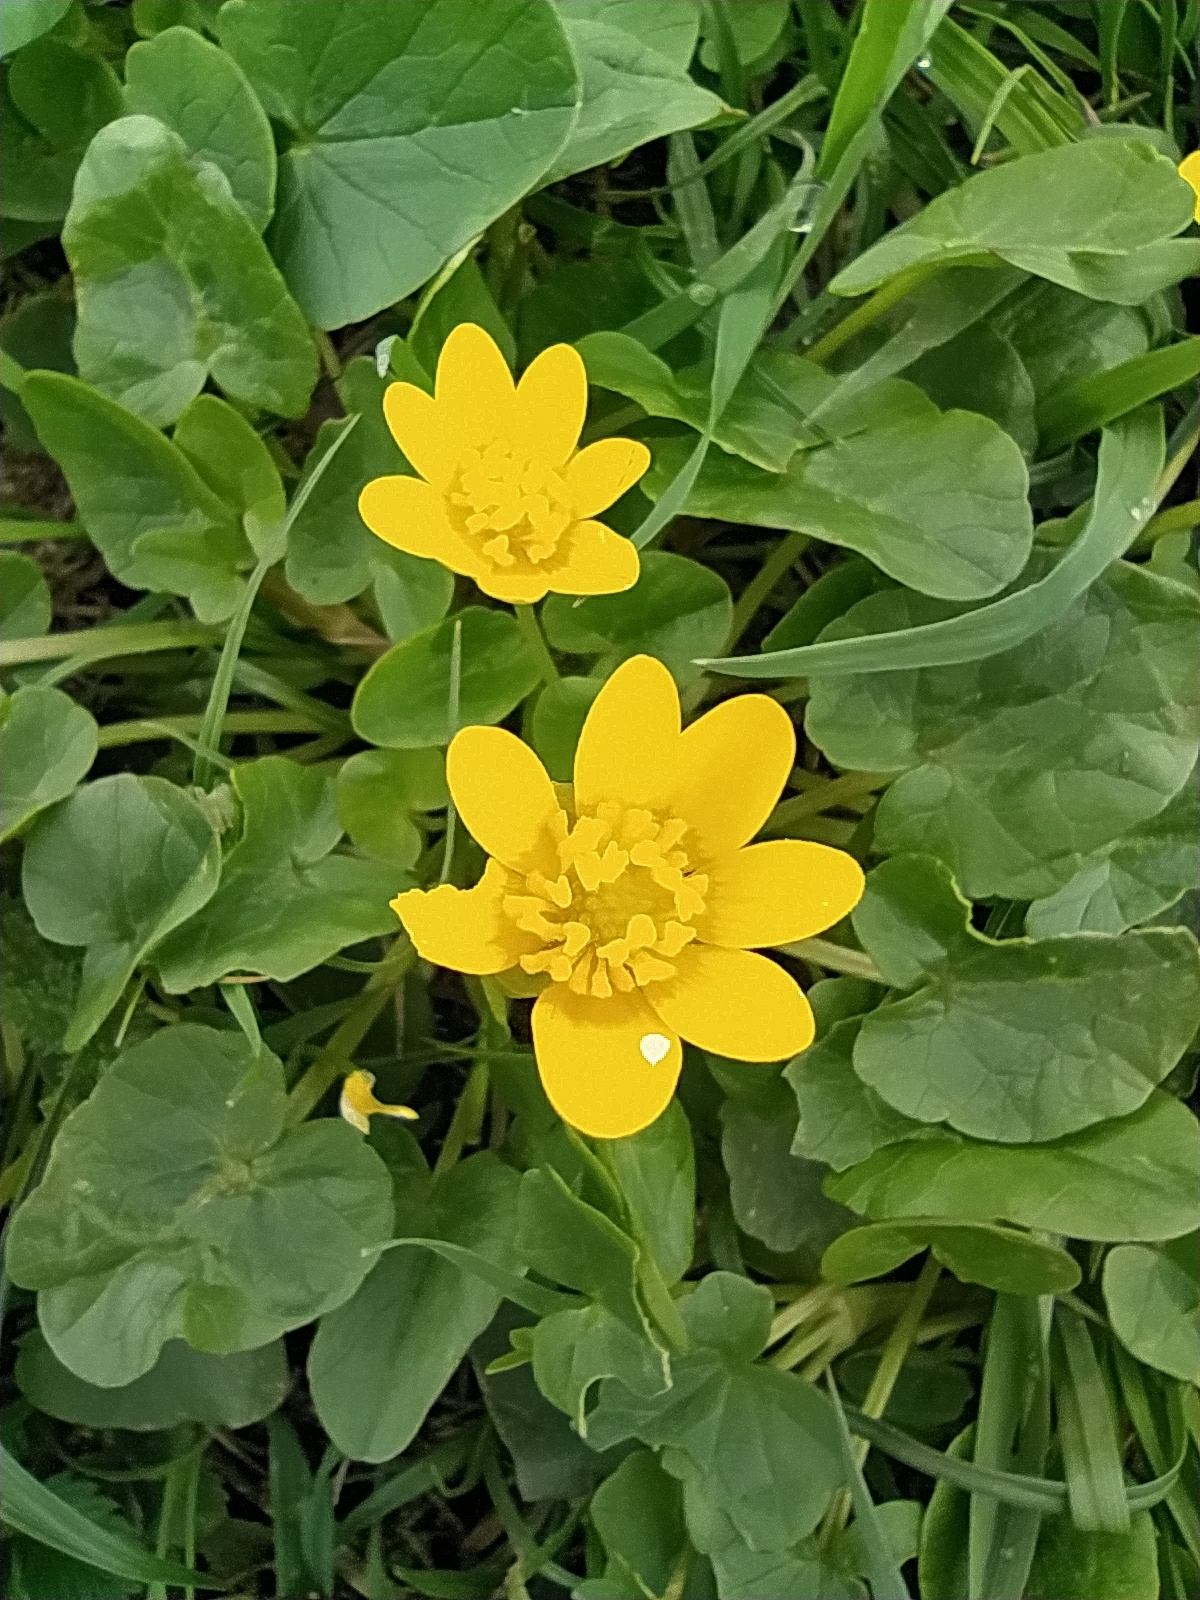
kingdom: Plantae
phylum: Tracheophyta
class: Magnoliopsida
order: Ranunculales
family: Ranunculaceae
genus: Ficaria
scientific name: Ficaria verna
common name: Lesser celandine
